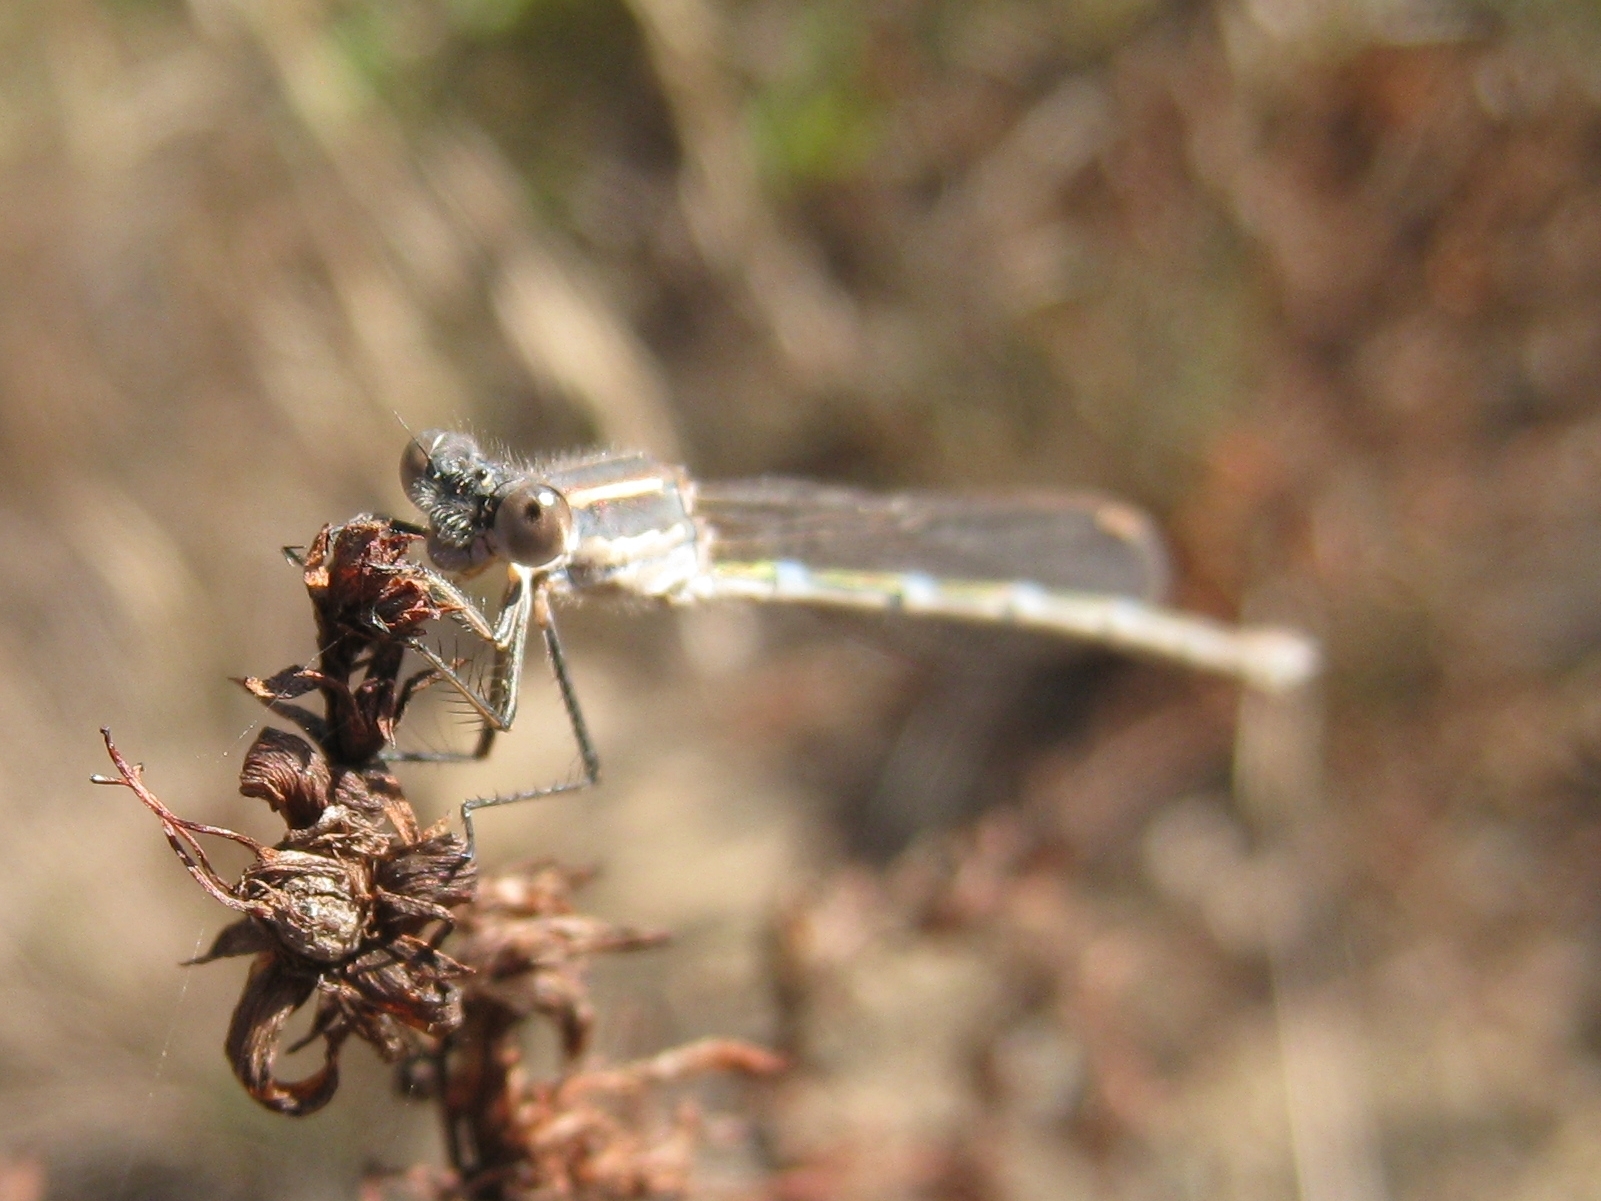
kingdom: Animalia
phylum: Arthropoda
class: Insecta
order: Odonata
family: Lestidae
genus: Austrolestes
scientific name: Austrolestes leda
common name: Wandering ringtail
